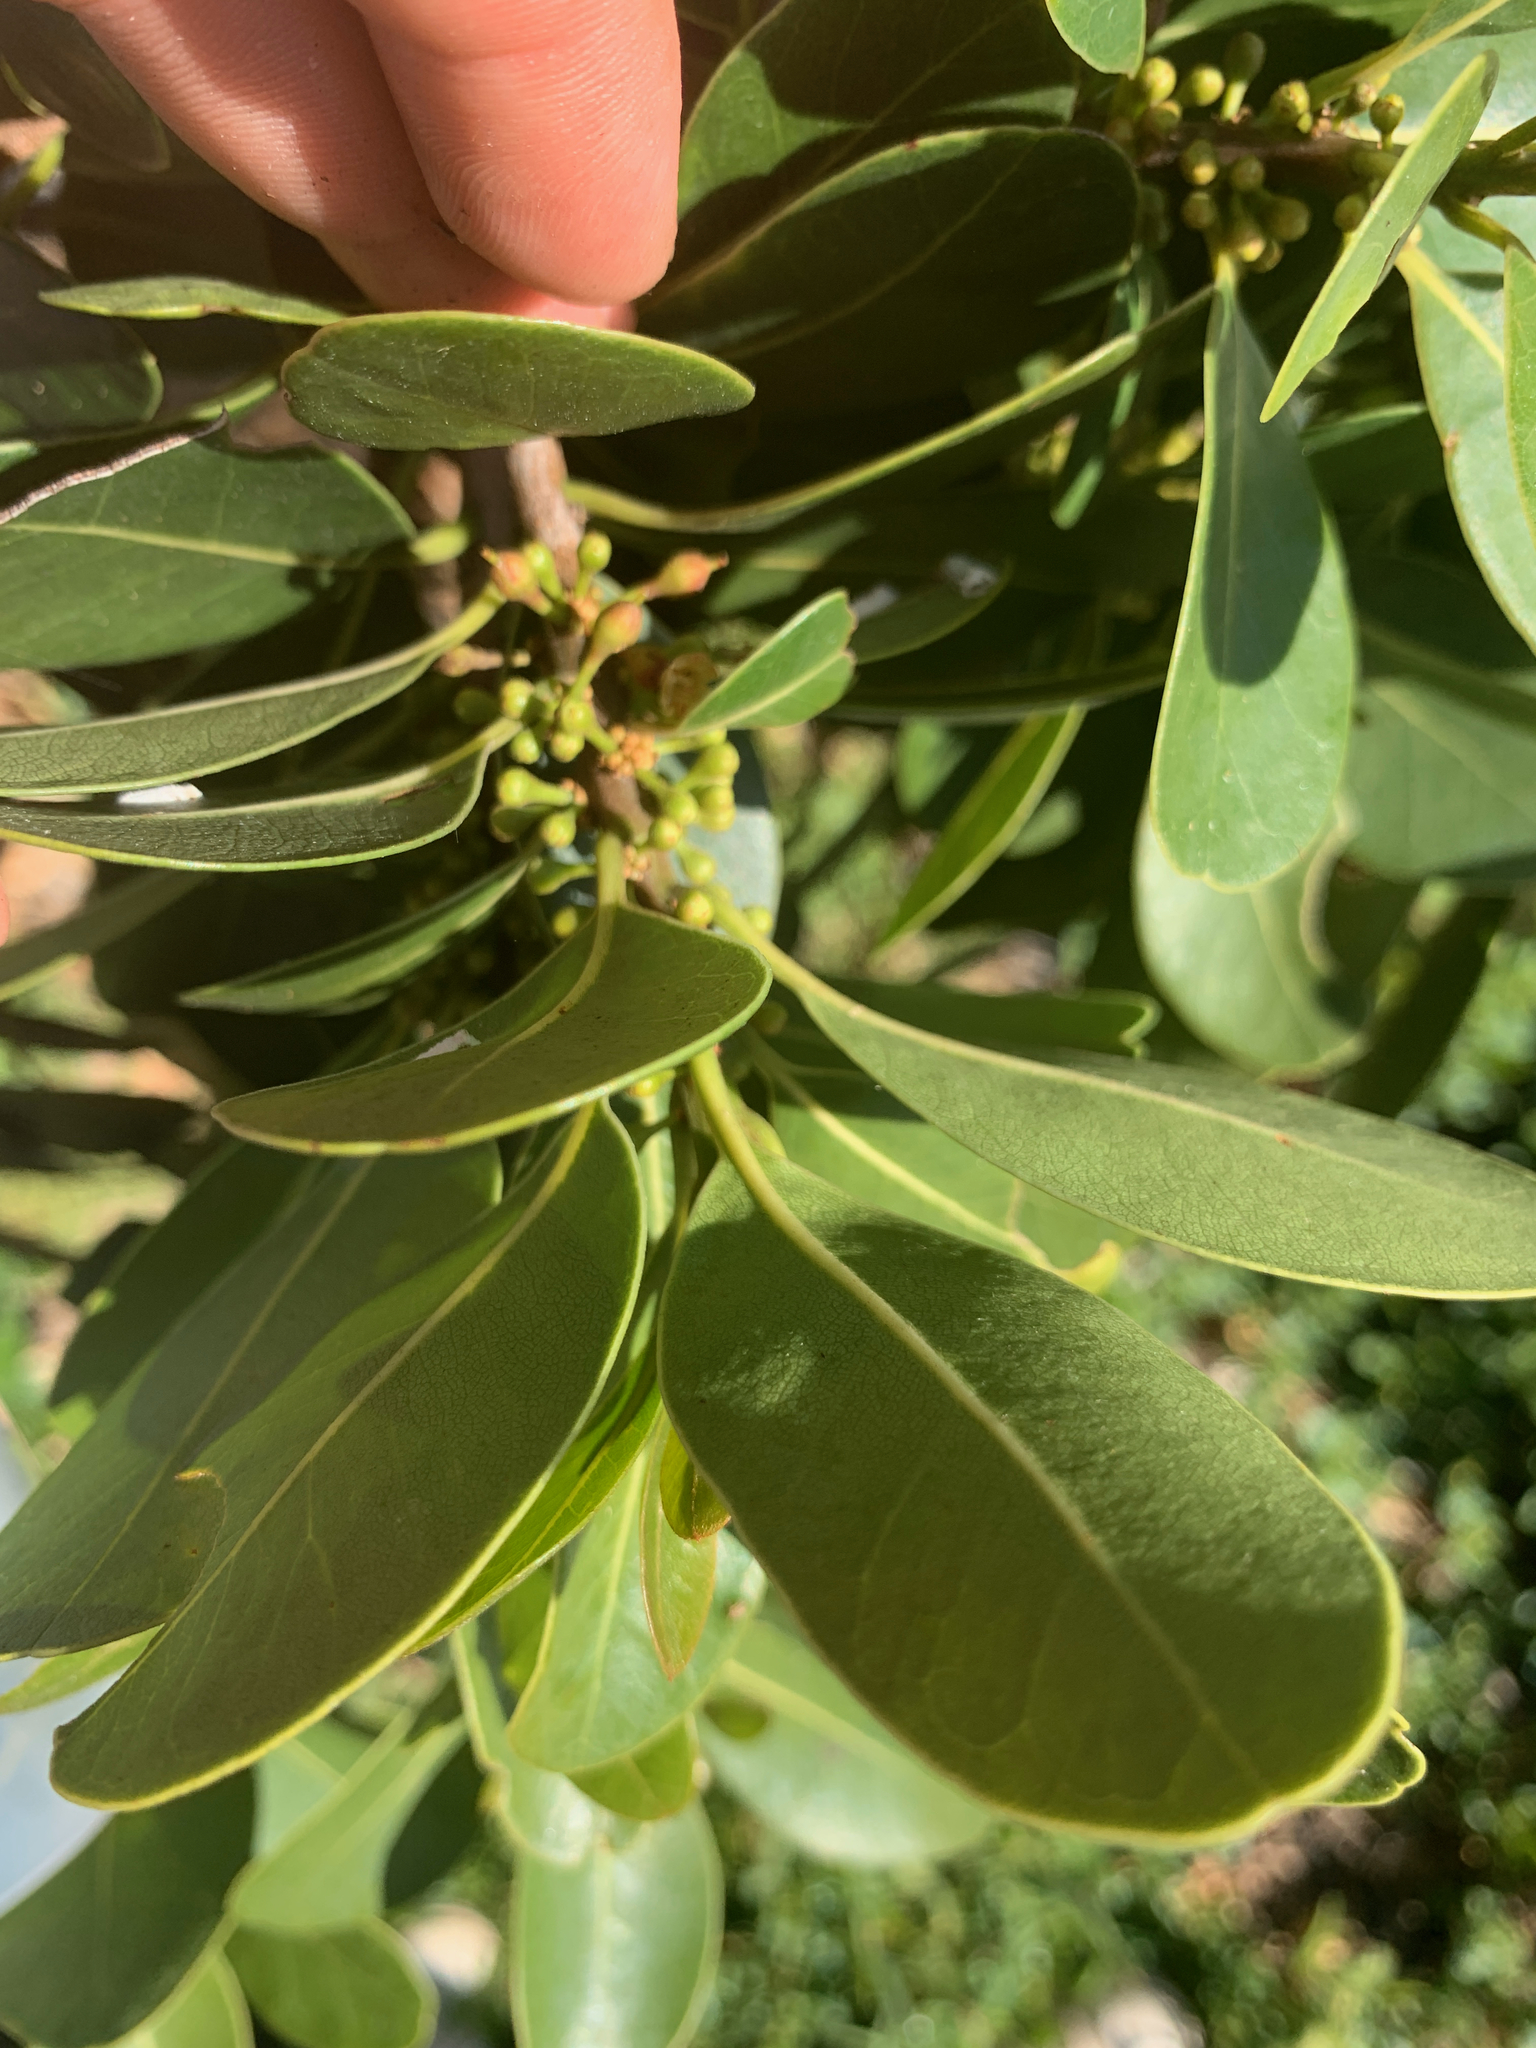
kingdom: Plantae
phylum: Tracheophyta
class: Magnoliopsida
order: Ericales
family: Sapotaceae
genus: Sideroxylon
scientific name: Sideroxylon inerme
